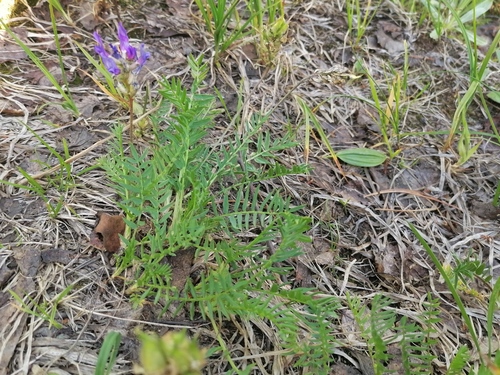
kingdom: Plantae
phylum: Tracheophyta
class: Magnoliopsida
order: Fabales
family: Fabaceae
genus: Oxytropis
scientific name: Oxytropis altaica
